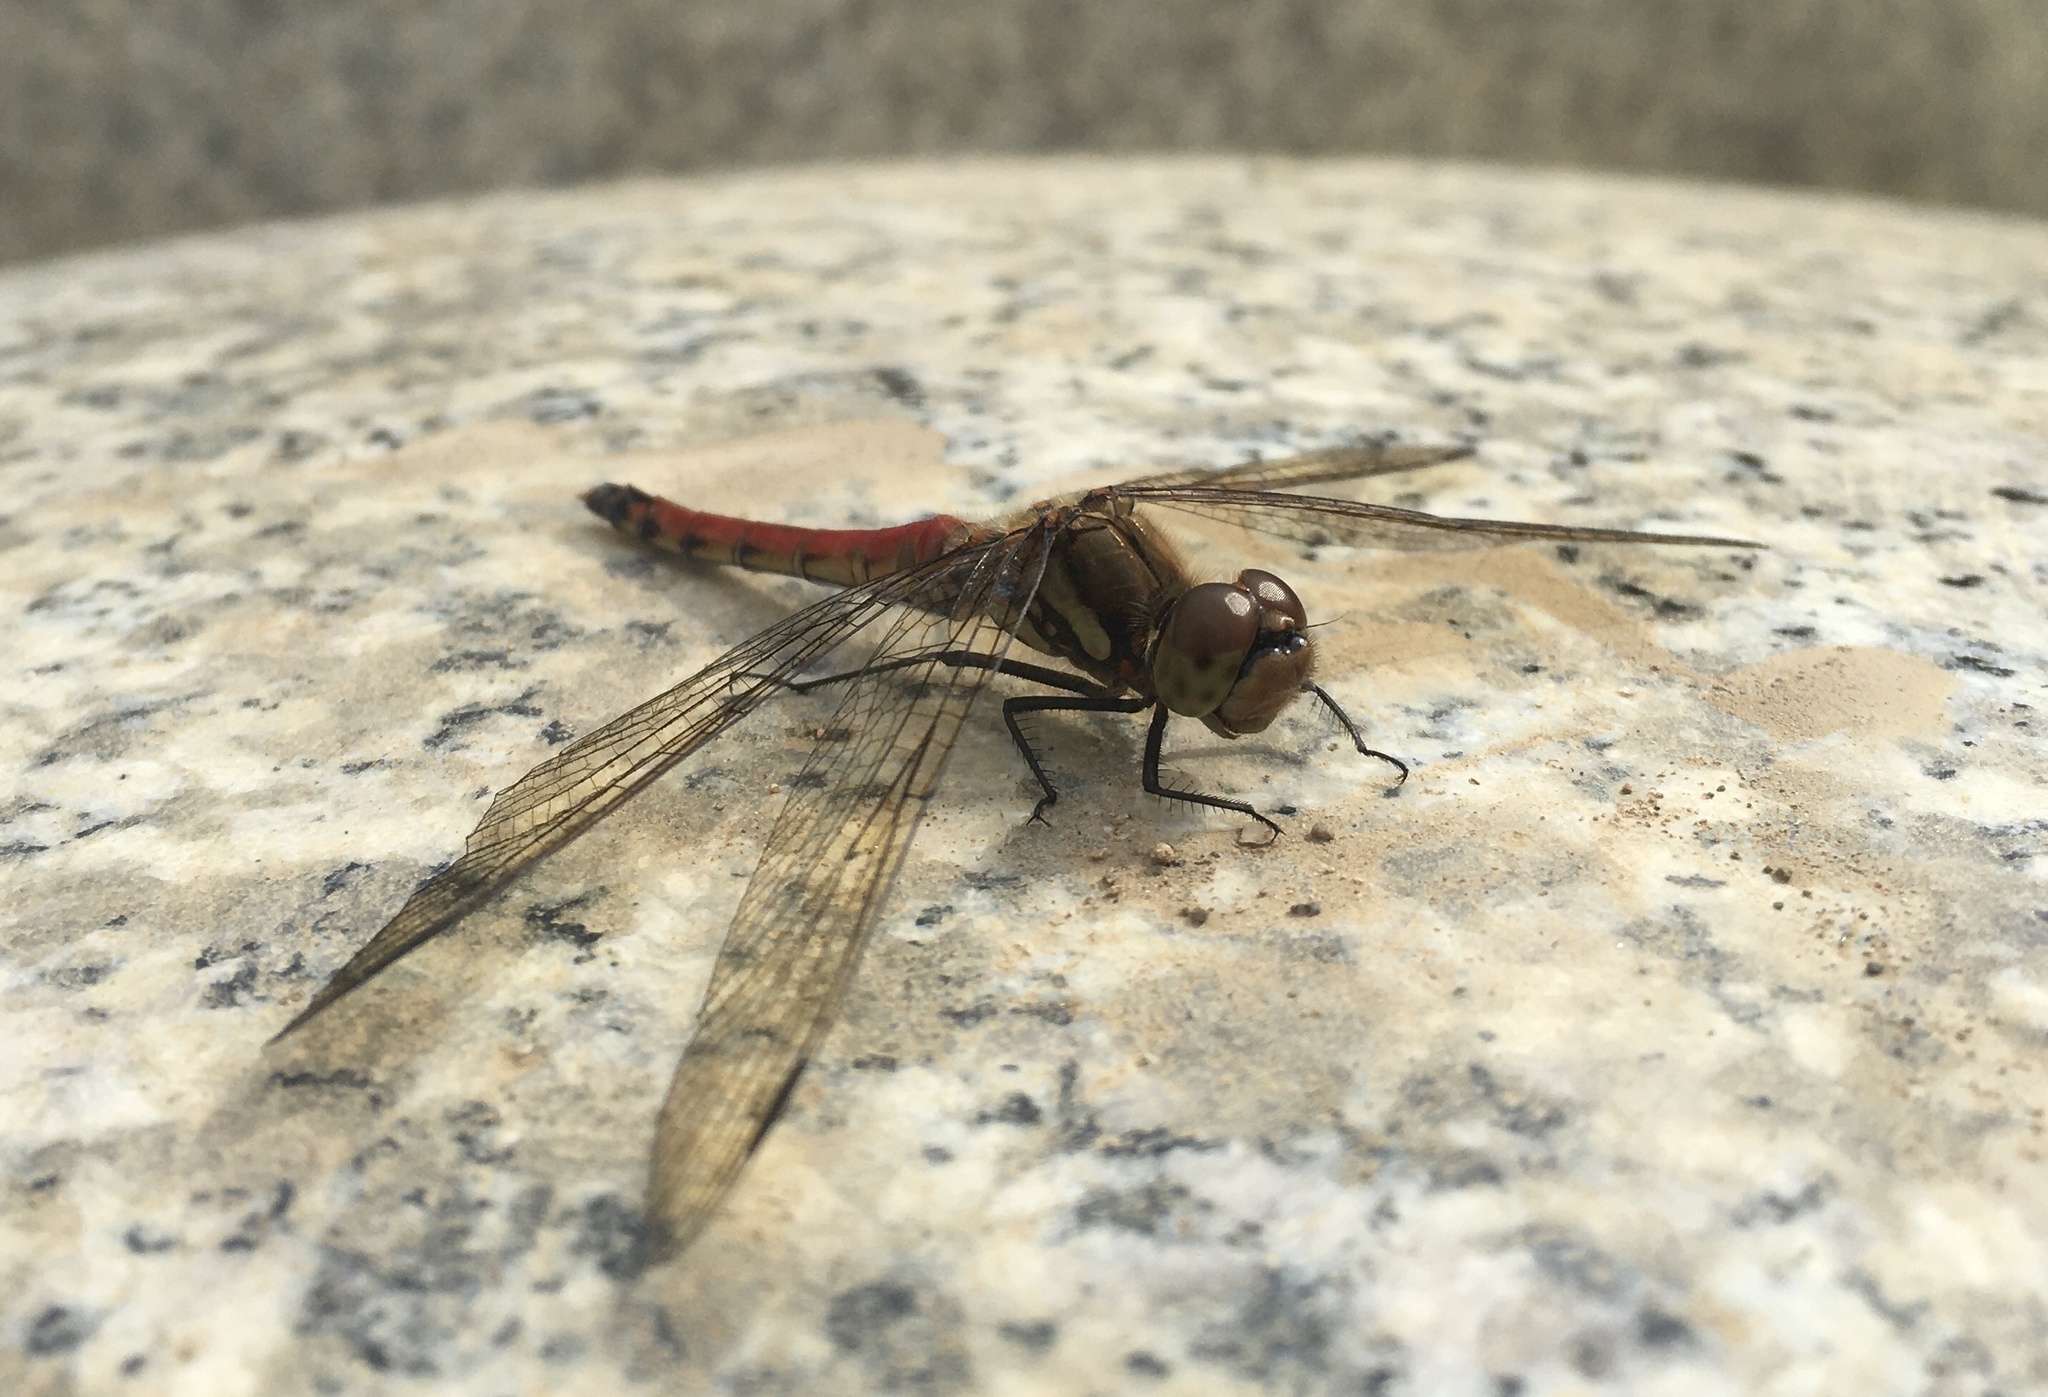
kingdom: Animalia
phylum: Arthropoda
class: Insecta
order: Odonata
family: Libellulidae
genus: Sympetrum
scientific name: Sympetrum frequens
